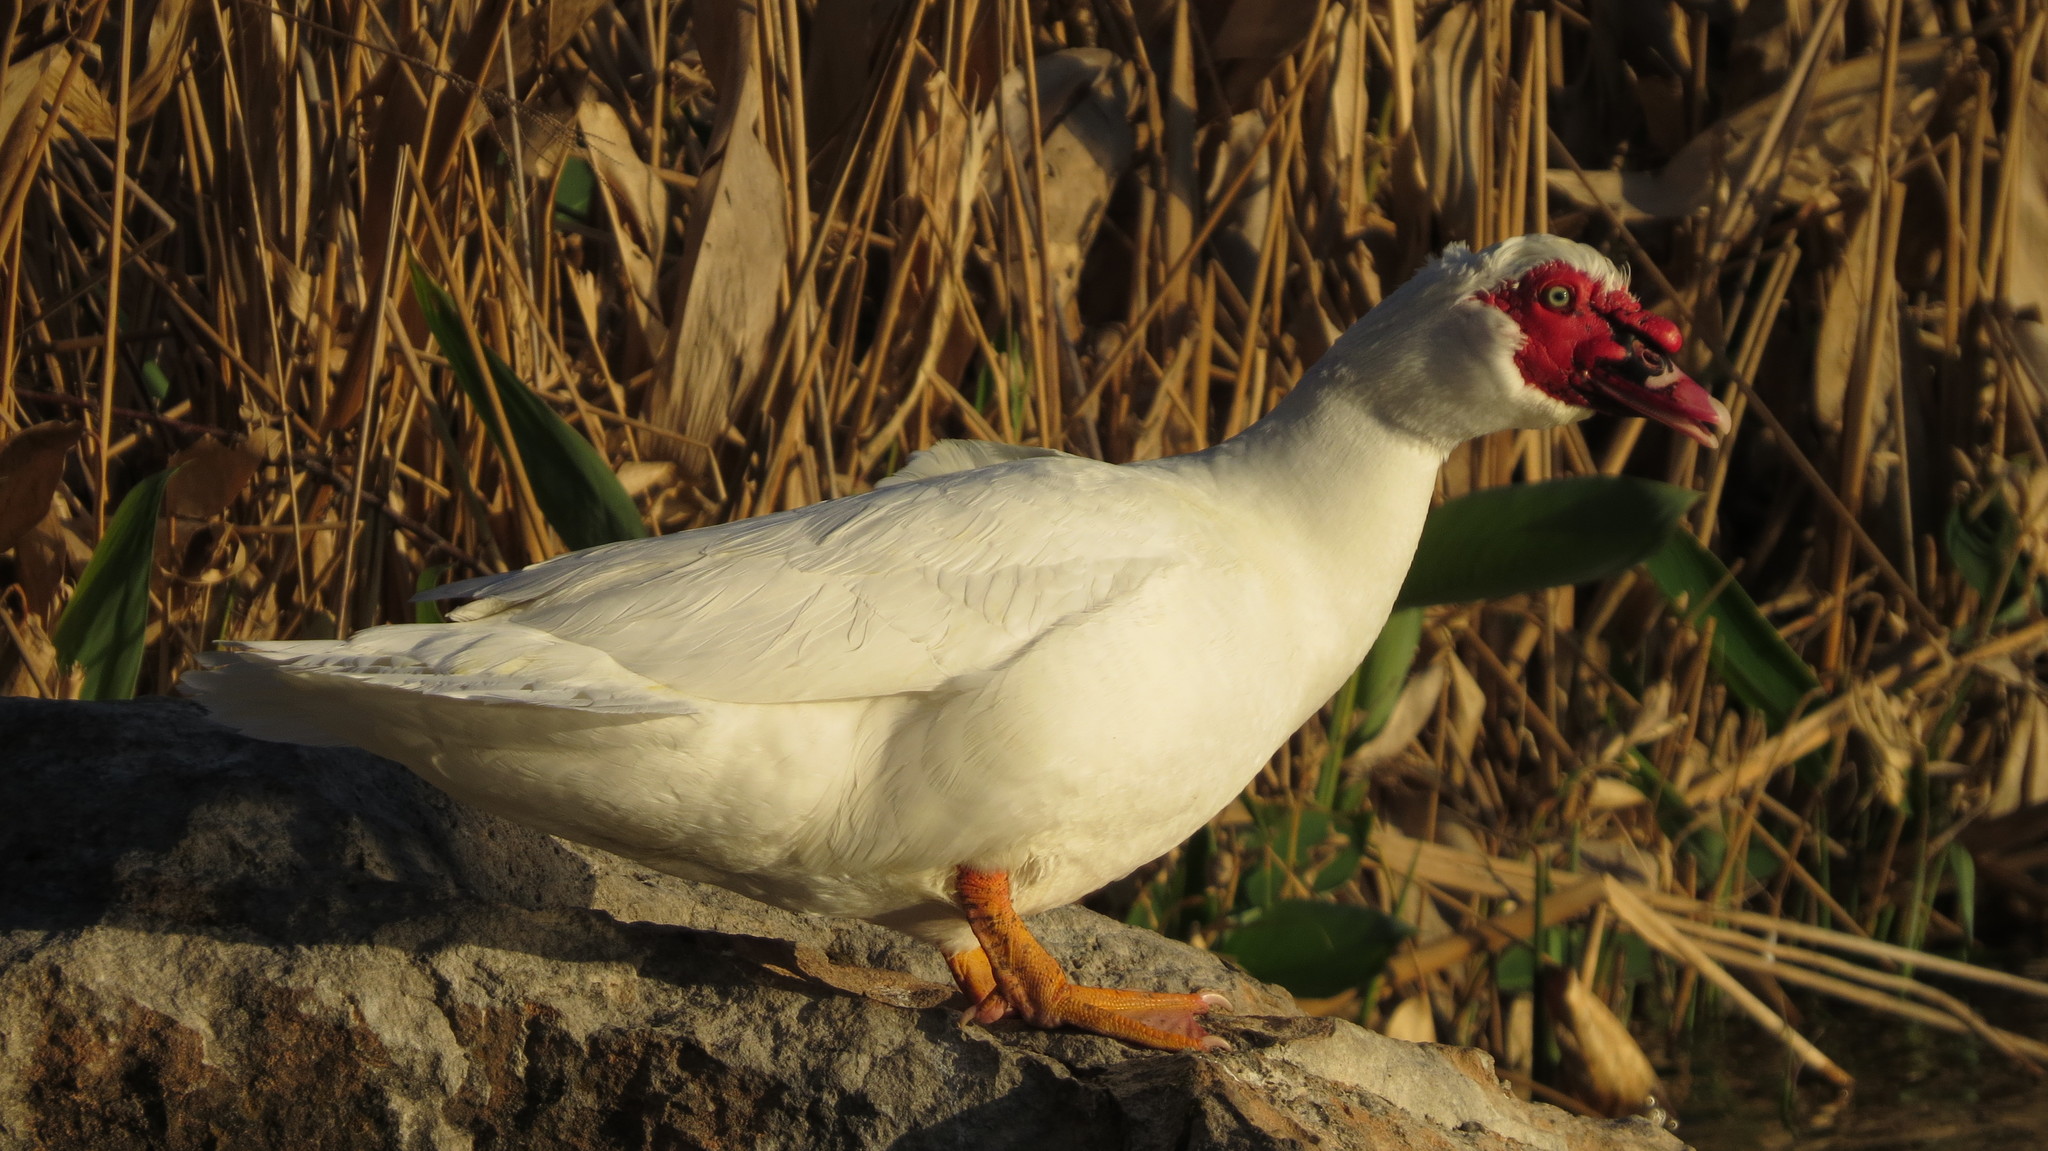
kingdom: Animalia
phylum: Chordata
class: Aves
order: Anseriformes
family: Anatidae
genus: Cairina
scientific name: Cairina moschata
